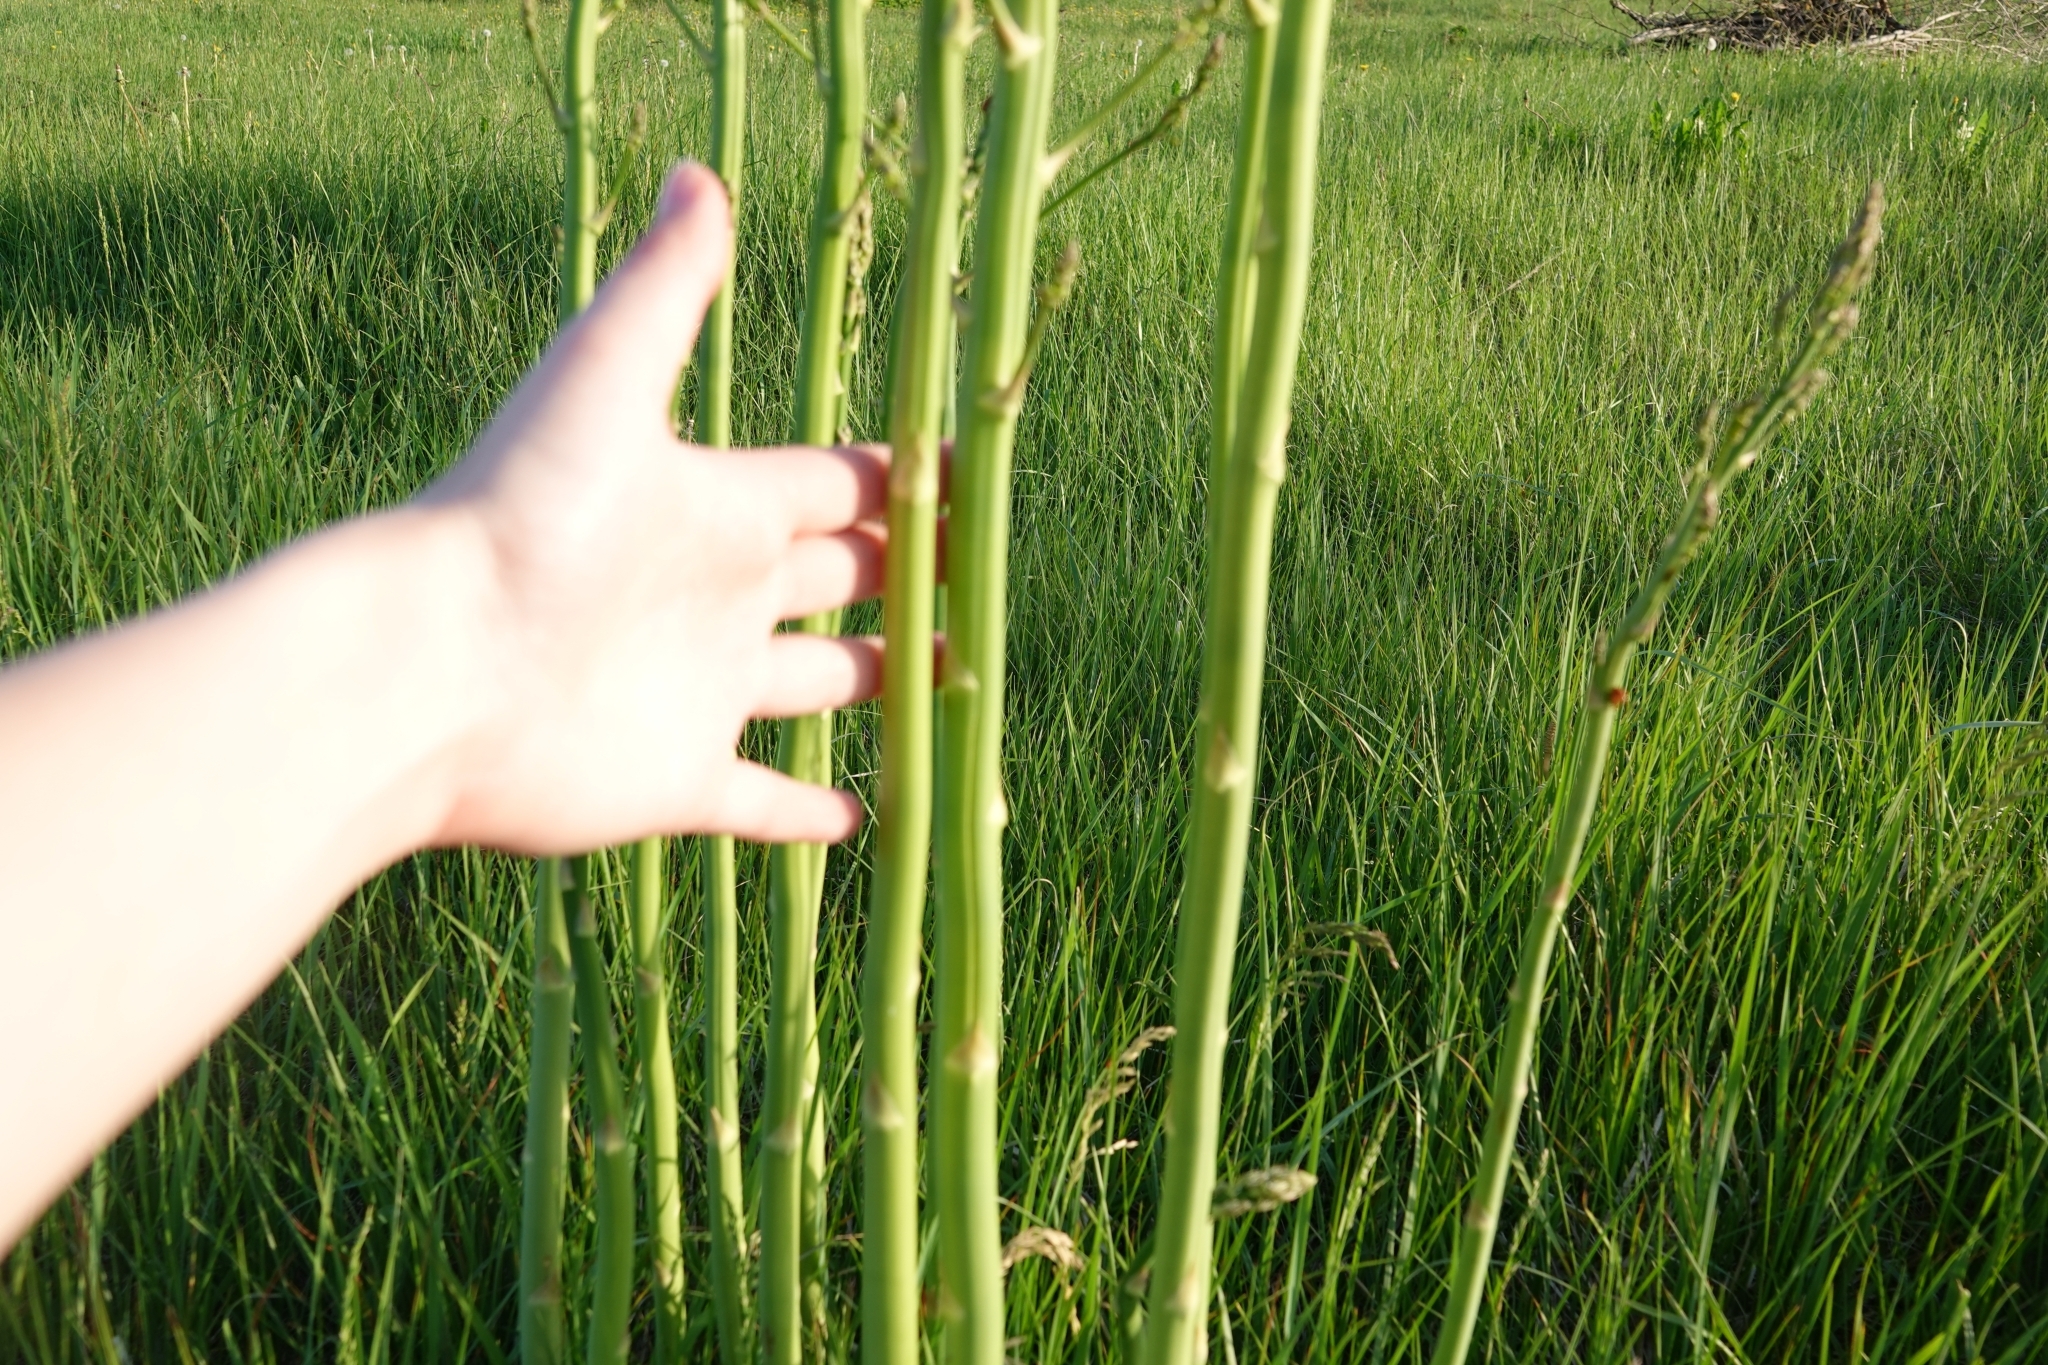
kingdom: Plantae
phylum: Tracheophyta
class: Liliopsida
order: Asparagales
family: Asparagaceae
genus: Asparagus
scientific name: Asparagus officinalis
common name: Garden asparagus
